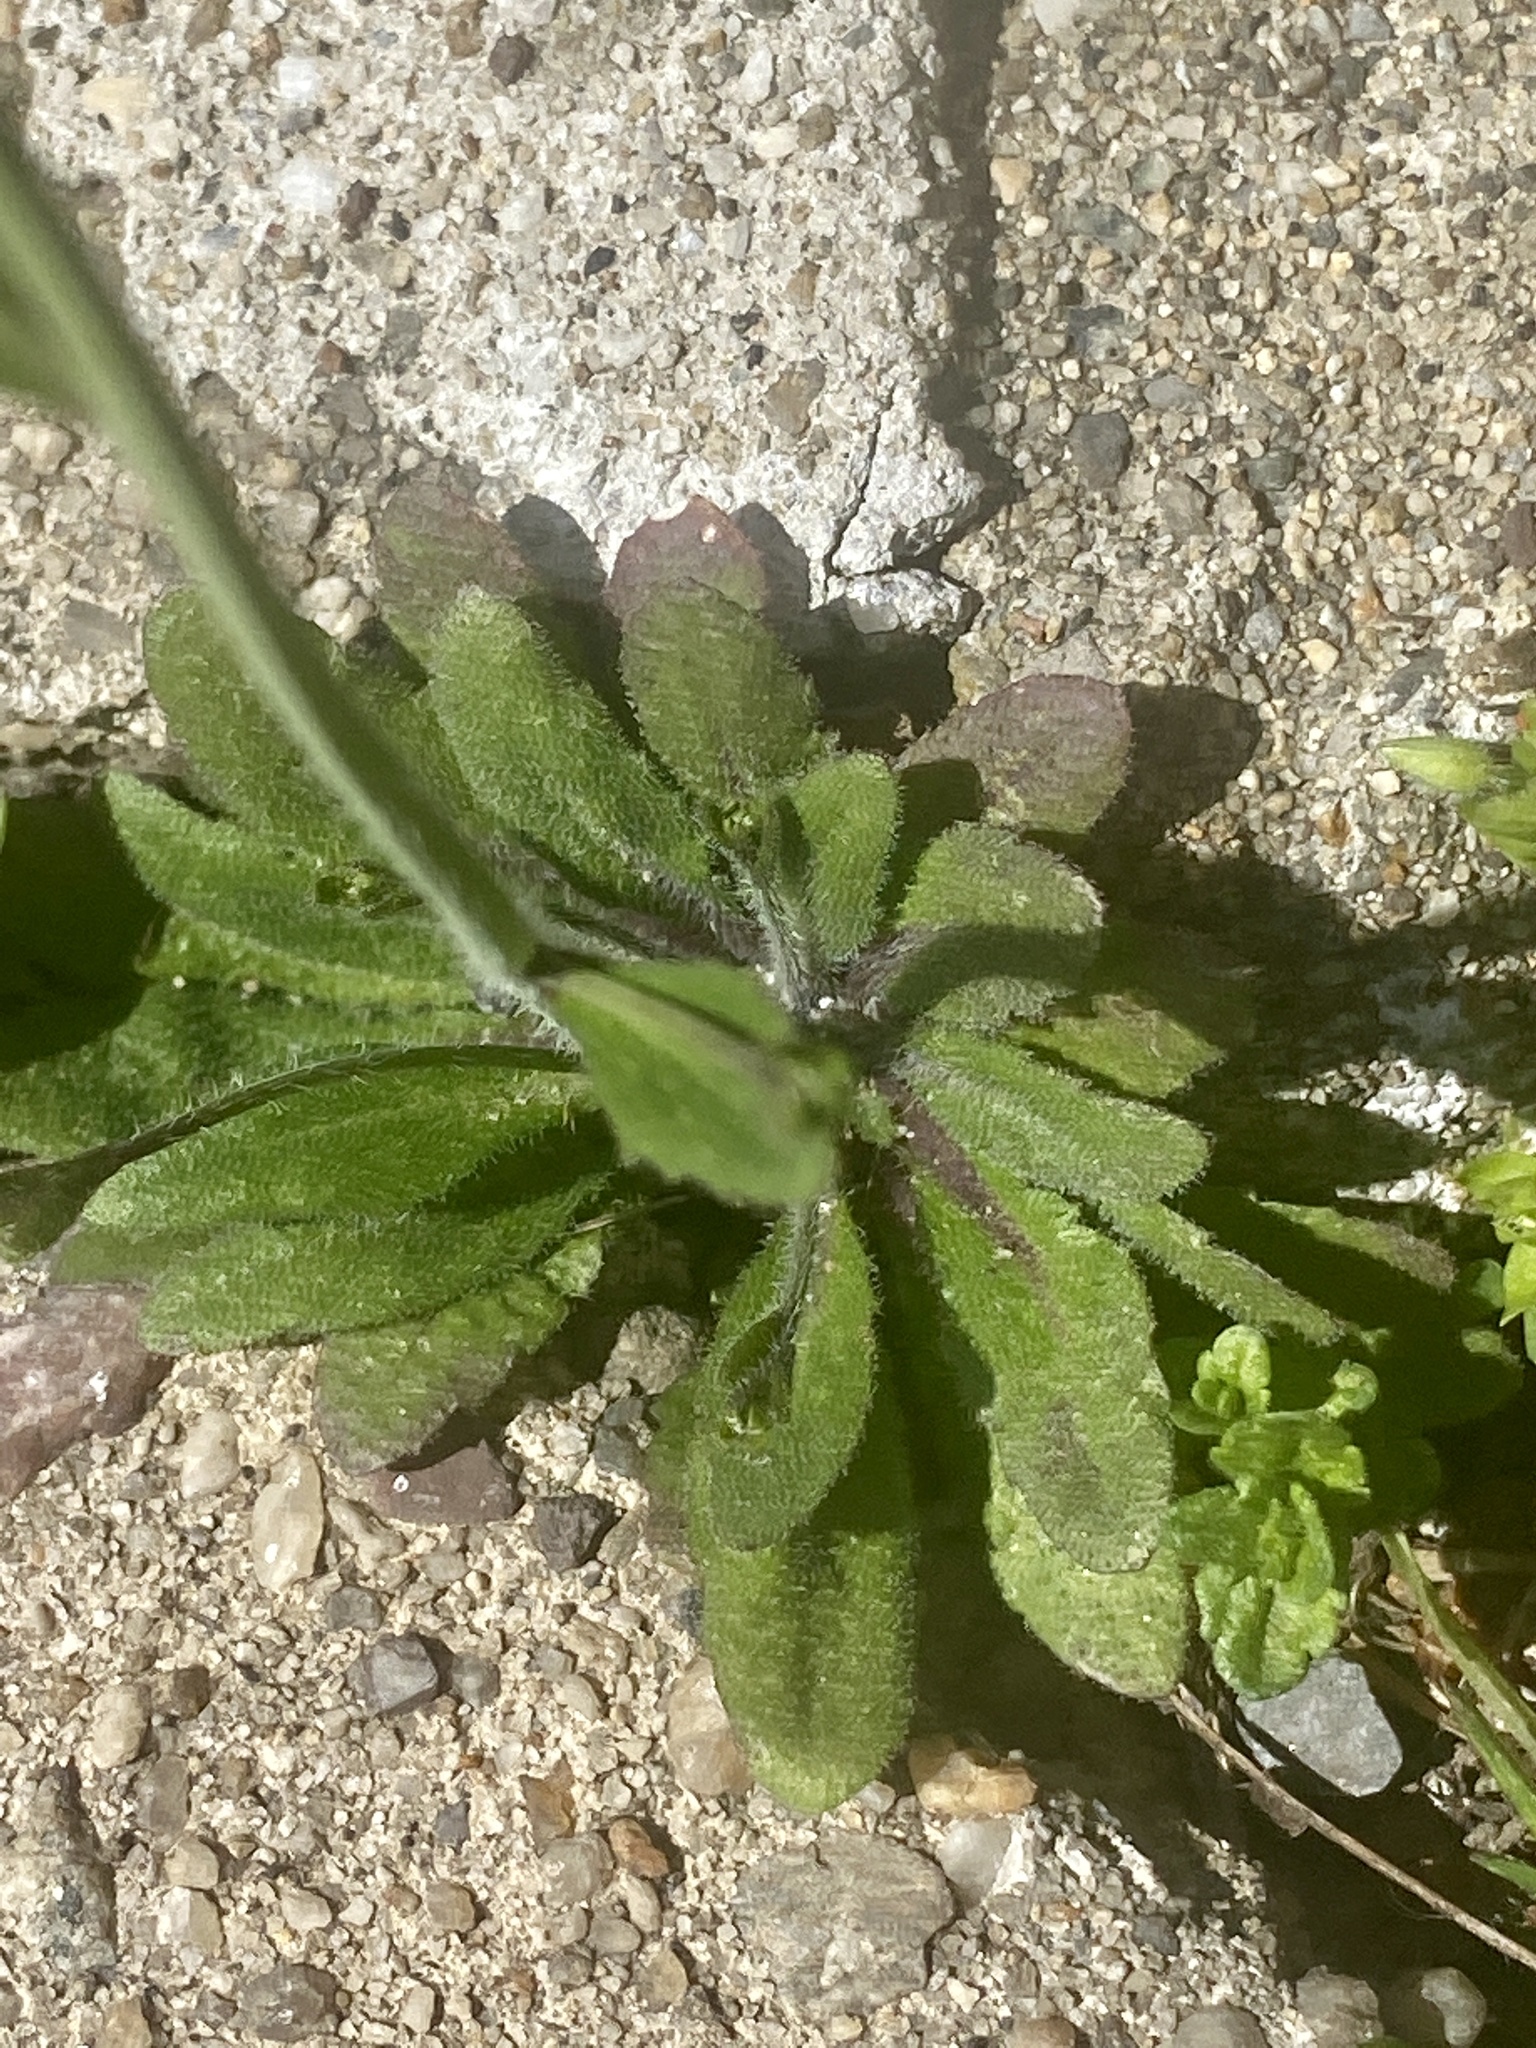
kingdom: Plantae
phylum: Tracheophyta
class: Magnoliopsida
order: Brassicales
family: Brassicaceae
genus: Arabidopsis
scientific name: Arabidopsis thaliana
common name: Thale cress
